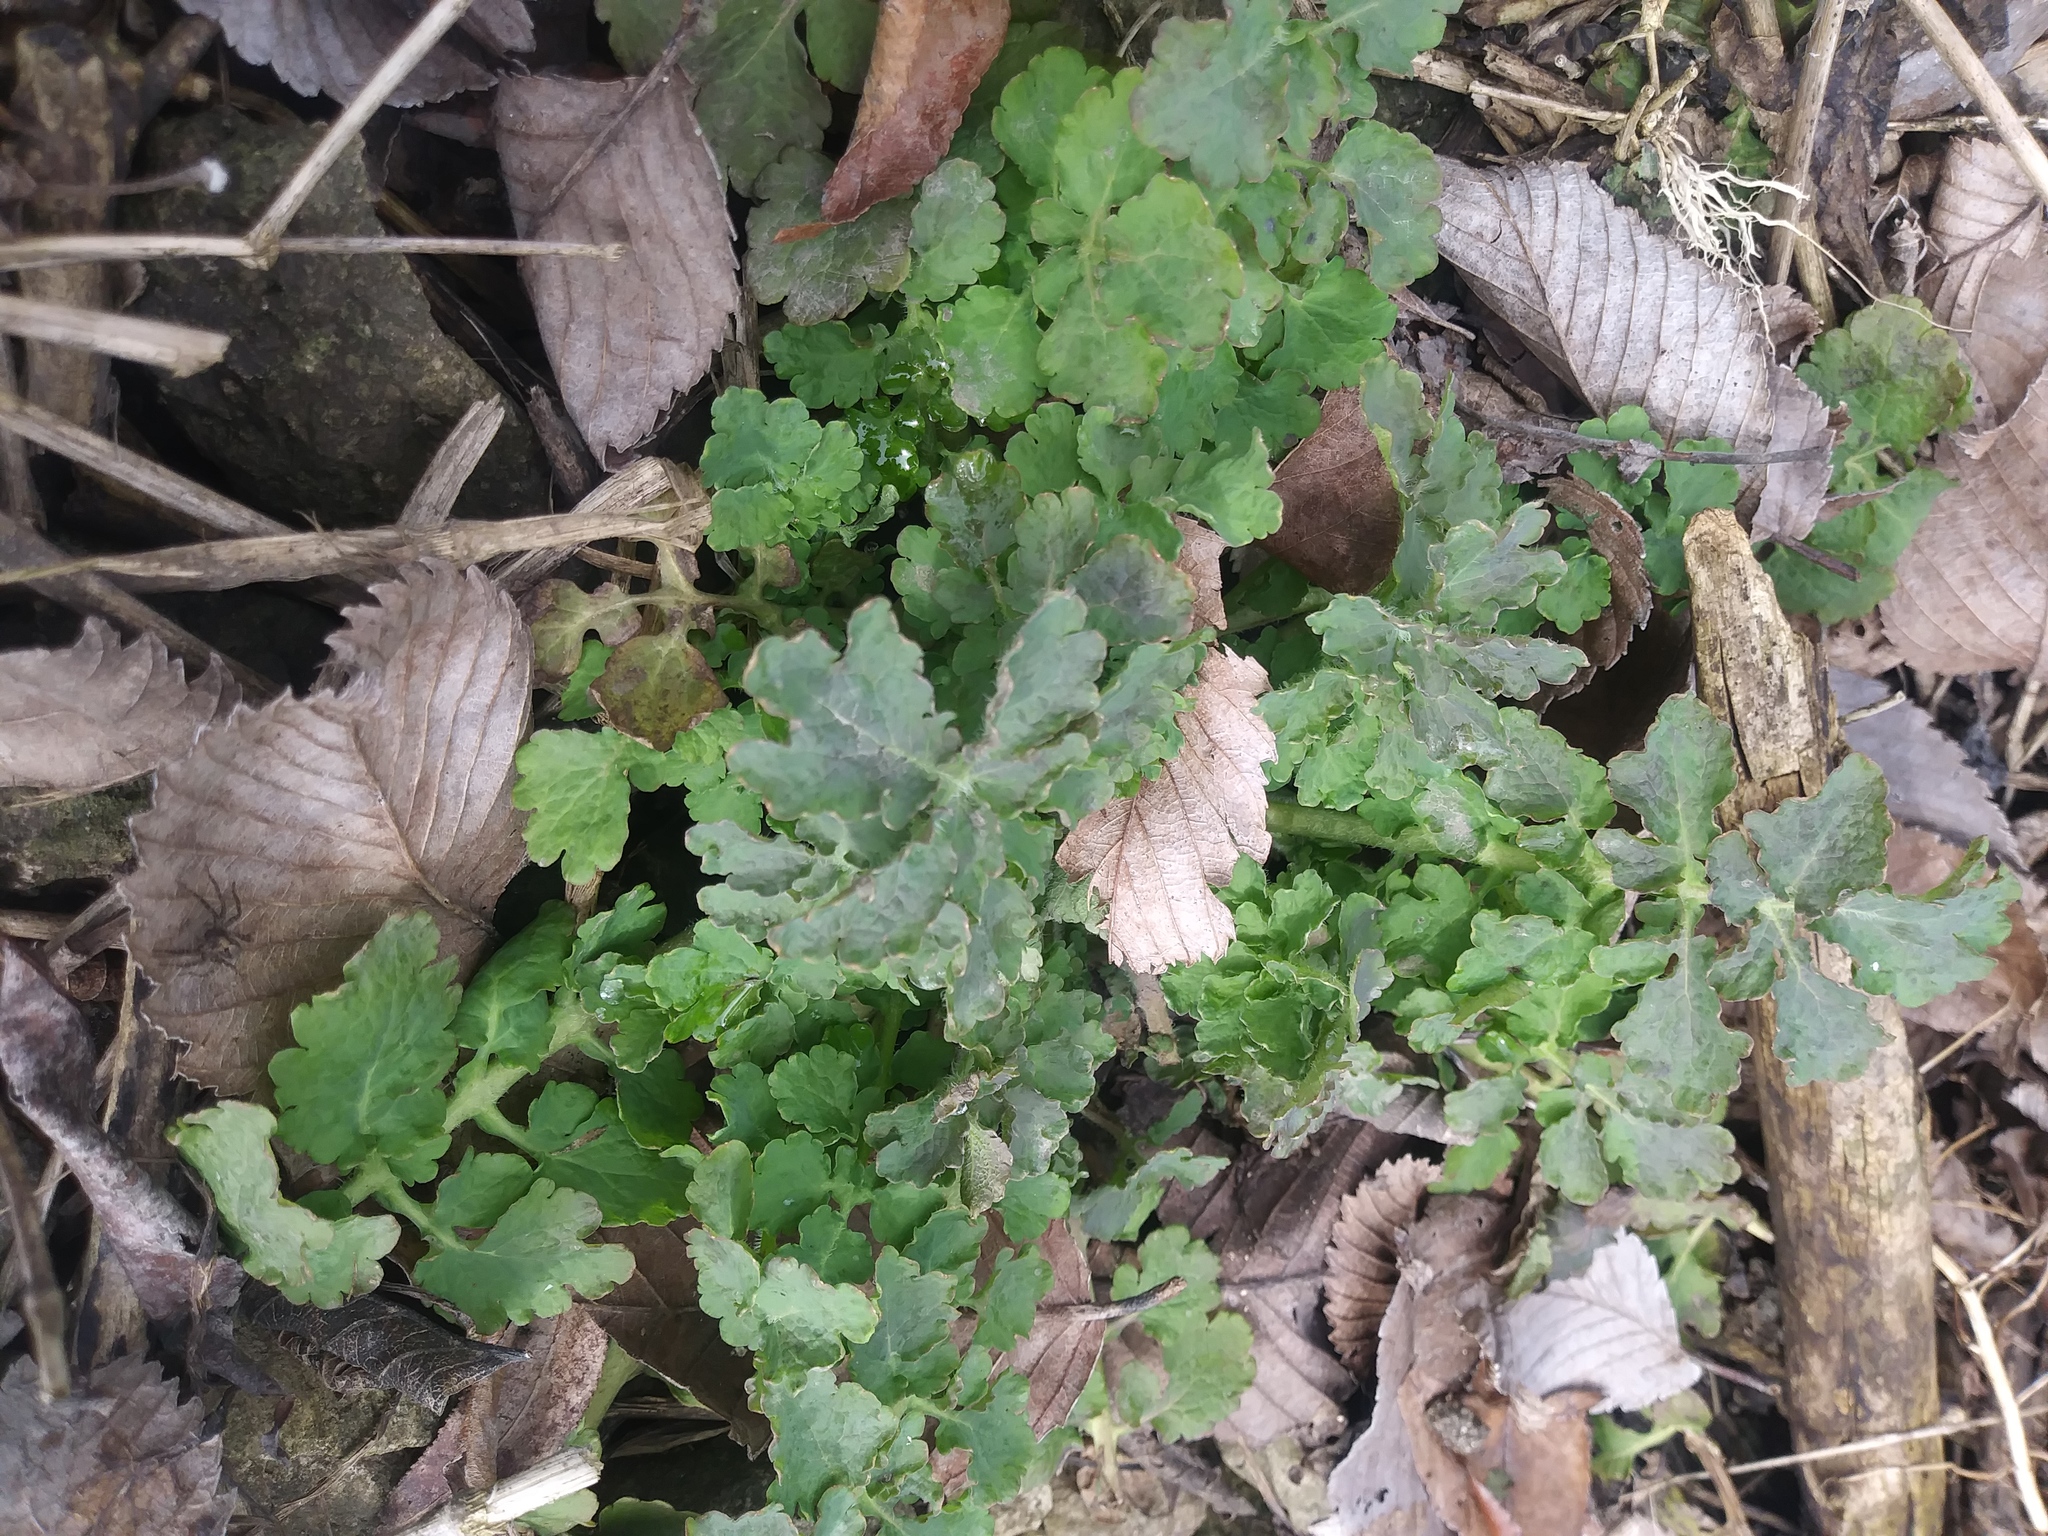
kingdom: Plantae
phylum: Tracheophyta
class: Magnoliopsida
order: Ranunculales
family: Papaveraceae
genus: Chelidonium
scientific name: Chelidonium majus
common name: Greater celandine
